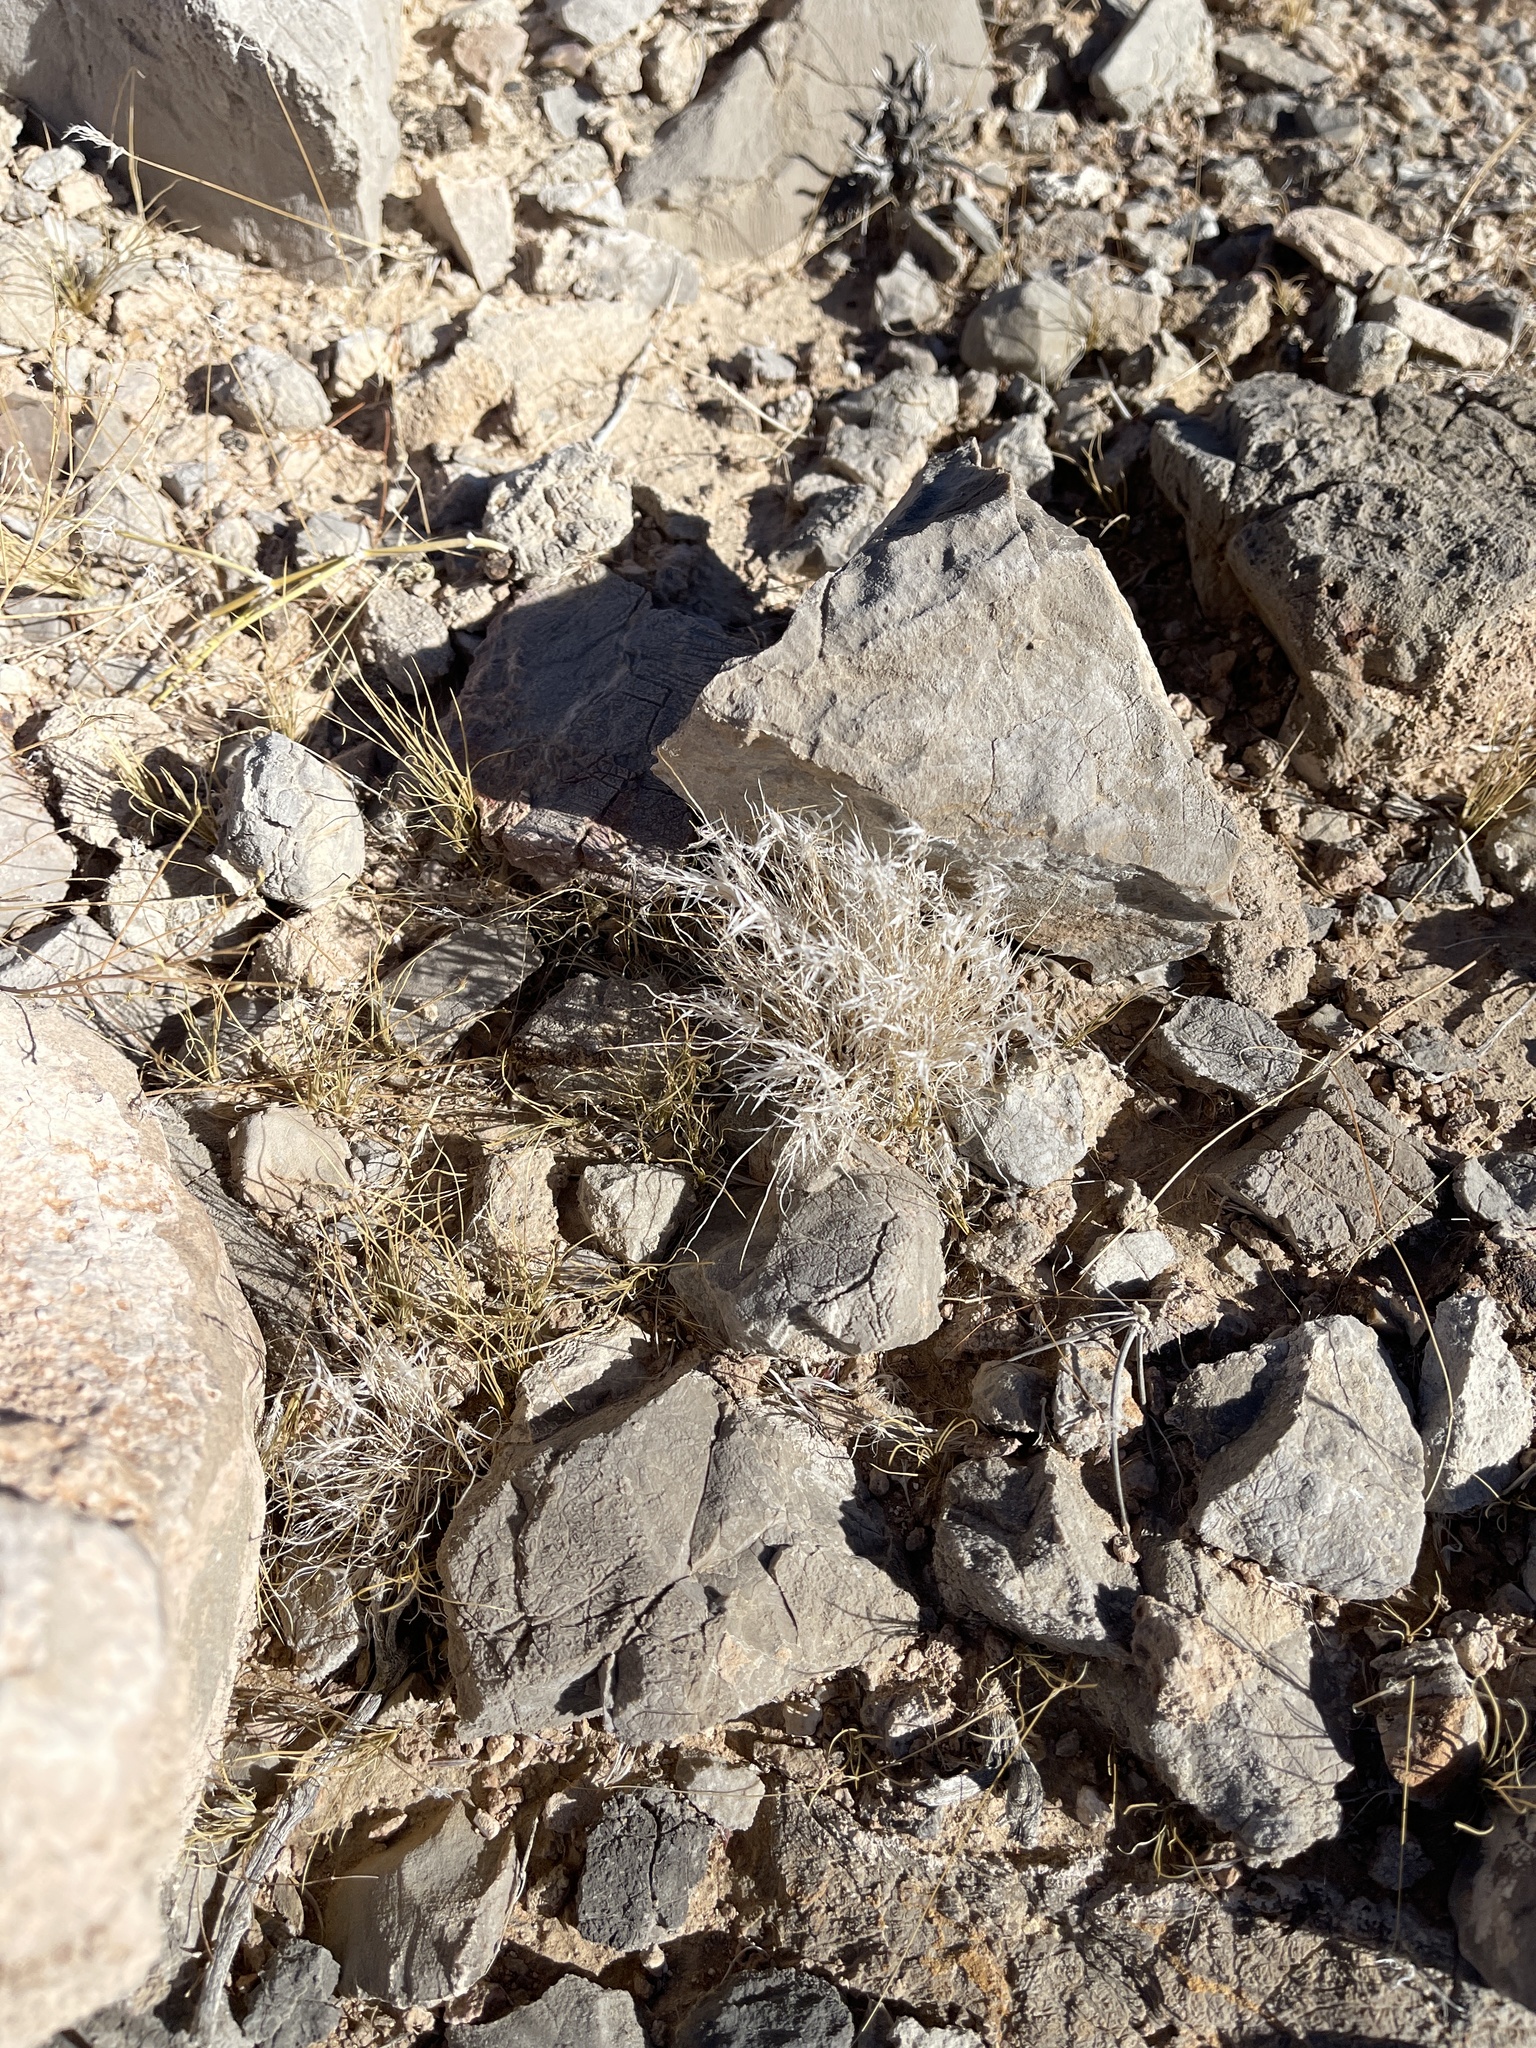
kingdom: Plantae
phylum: Tracheophyta
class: Liliopsida
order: Poales
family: Poaceae
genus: Dasyochloa
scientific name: Dasyochloa pulchella
